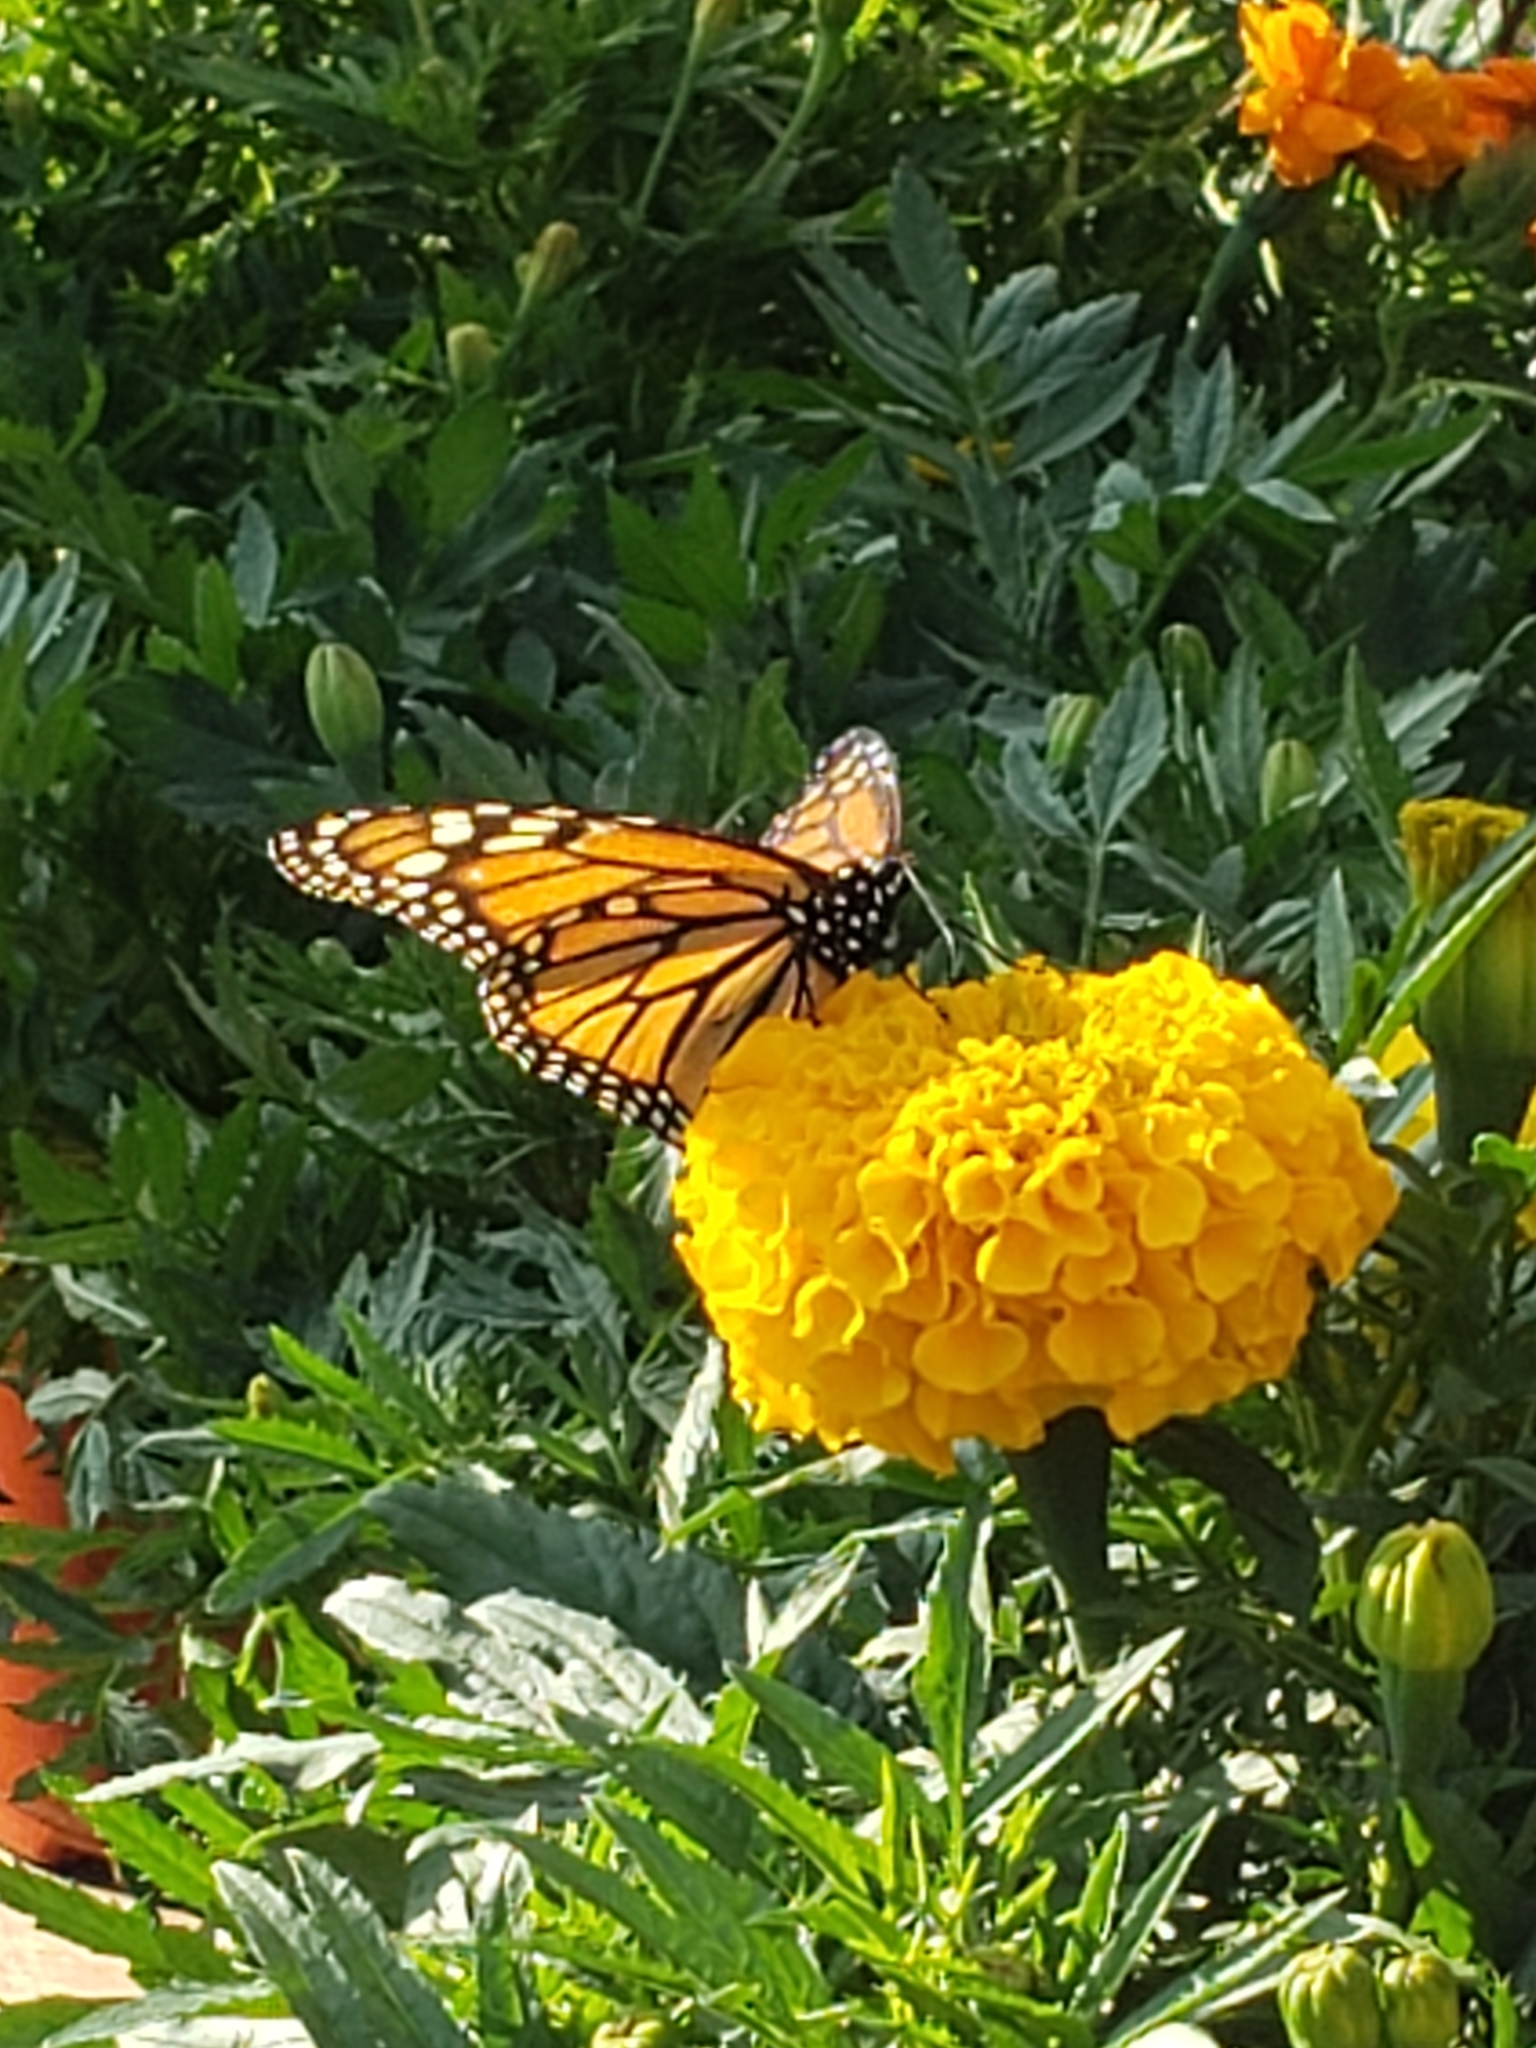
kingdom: Animalia
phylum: Arthropoda
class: Insecta
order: Lepidoptera
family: Nymphalidae
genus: Danaus
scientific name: Danaus plexippus
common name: Monarch
